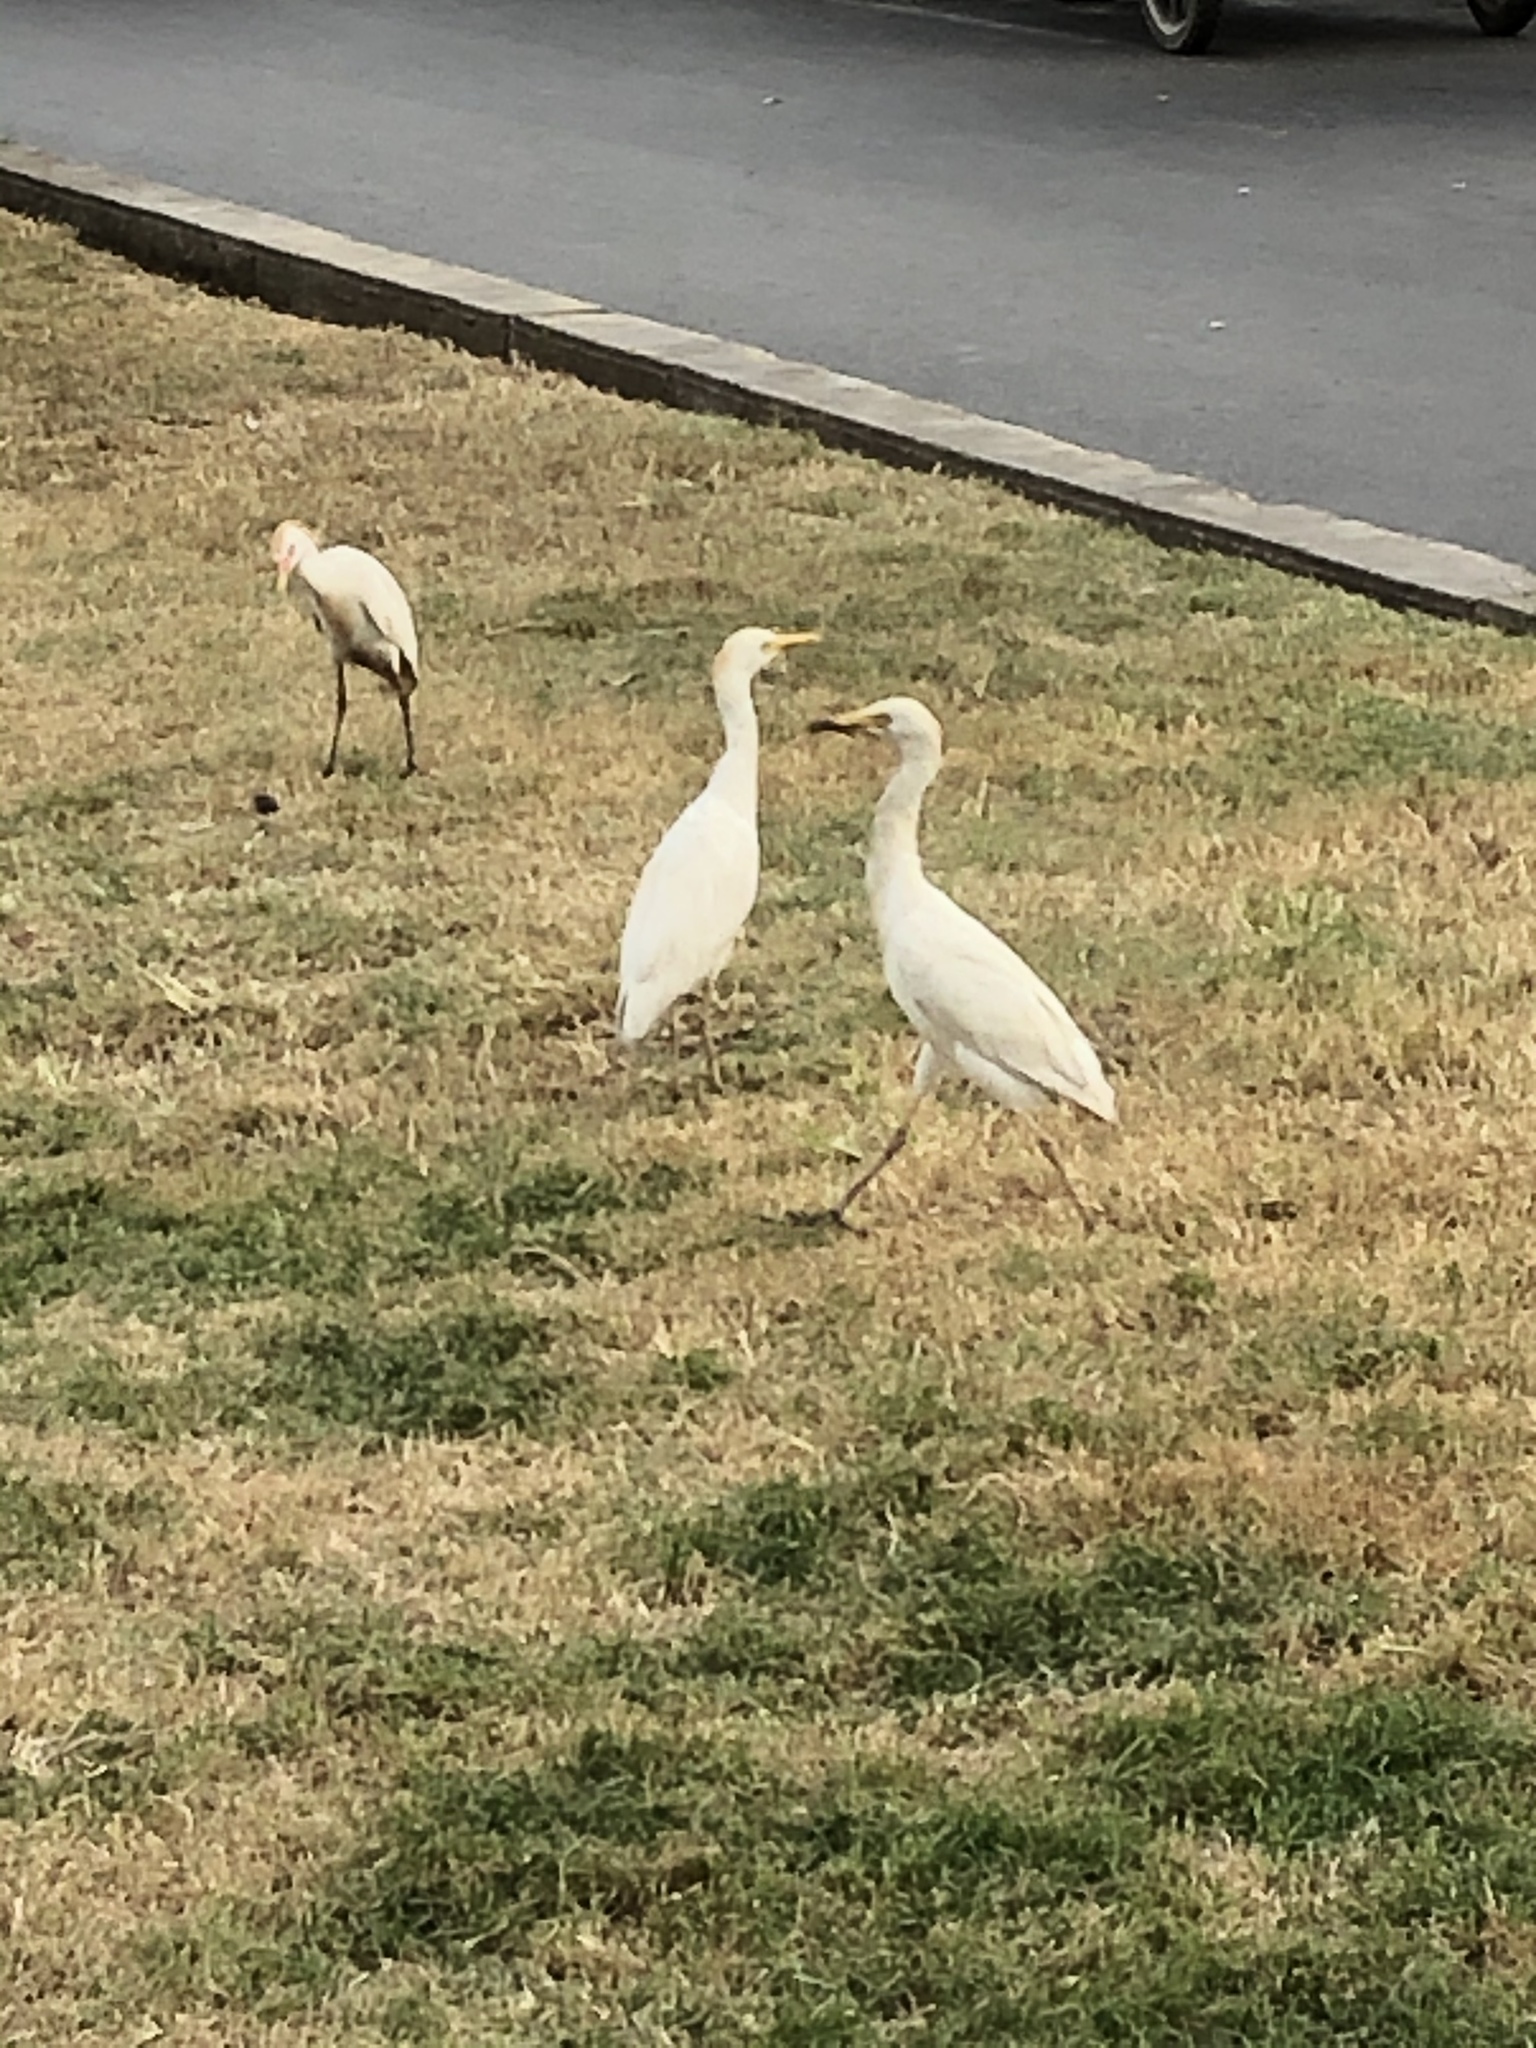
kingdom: Animalia
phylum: Chordata
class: Aves
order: Pelecaniformes
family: Ardeidae
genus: Bubulcus
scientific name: Bubulcus ibis
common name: Cattle egret
